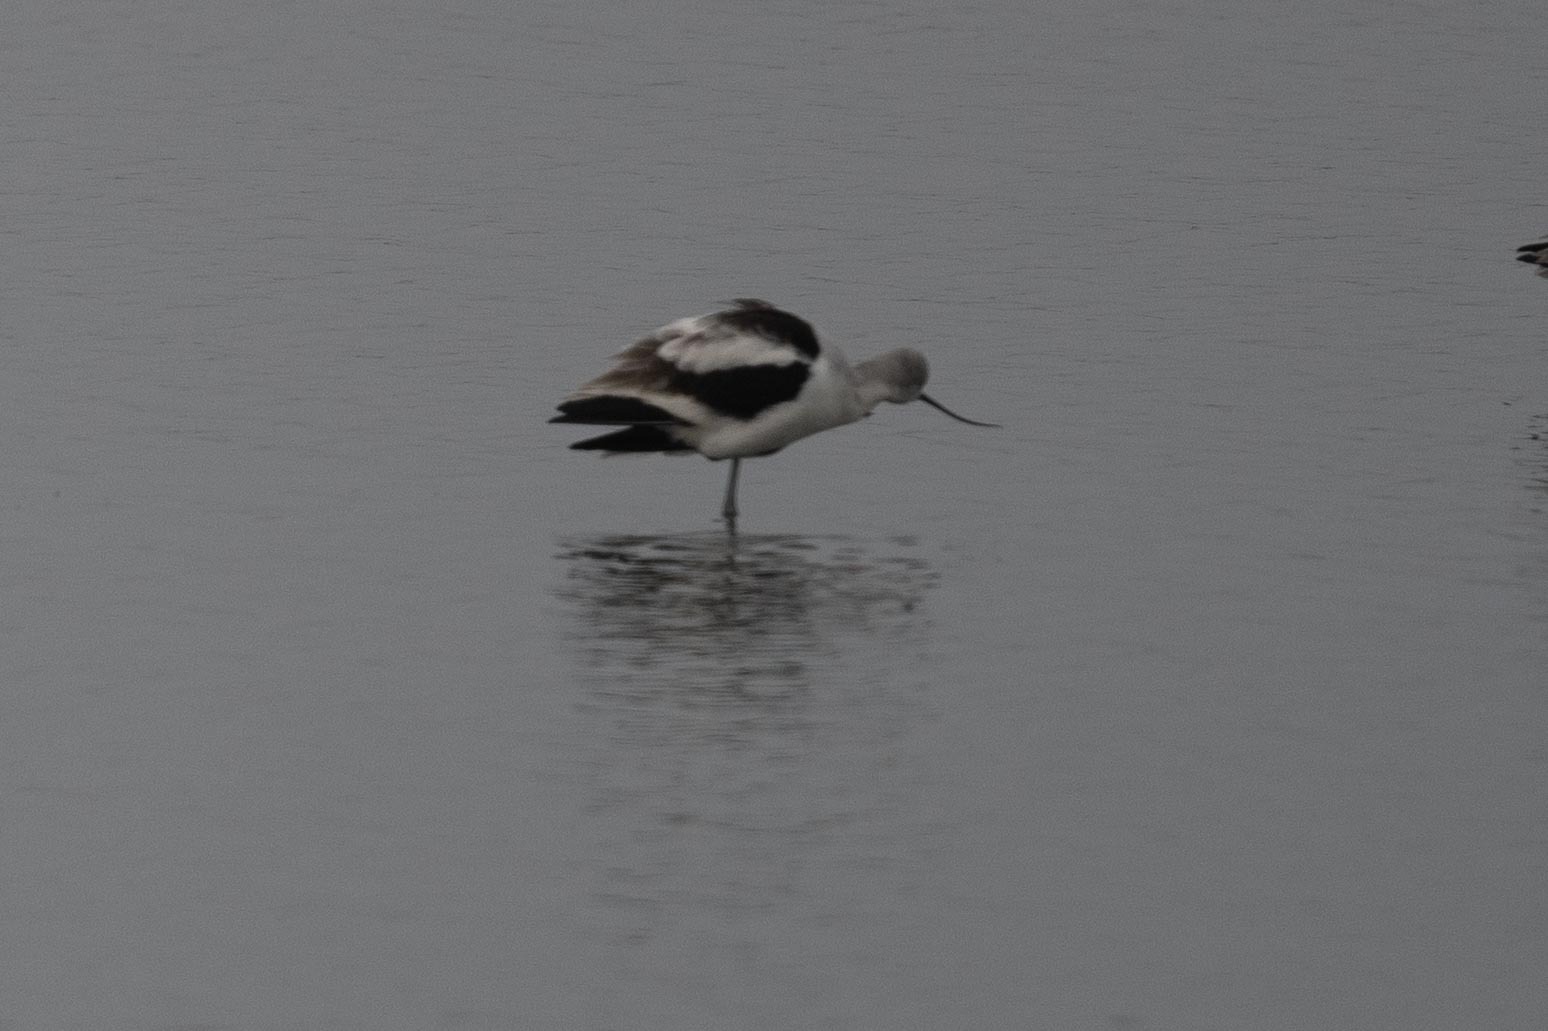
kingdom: Animalia
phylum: Chordata
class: Aves
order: Charadriiformes
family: Recurvirostridae
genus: Recurvirostra
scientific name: Recurvirostra americana
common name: American avocet
